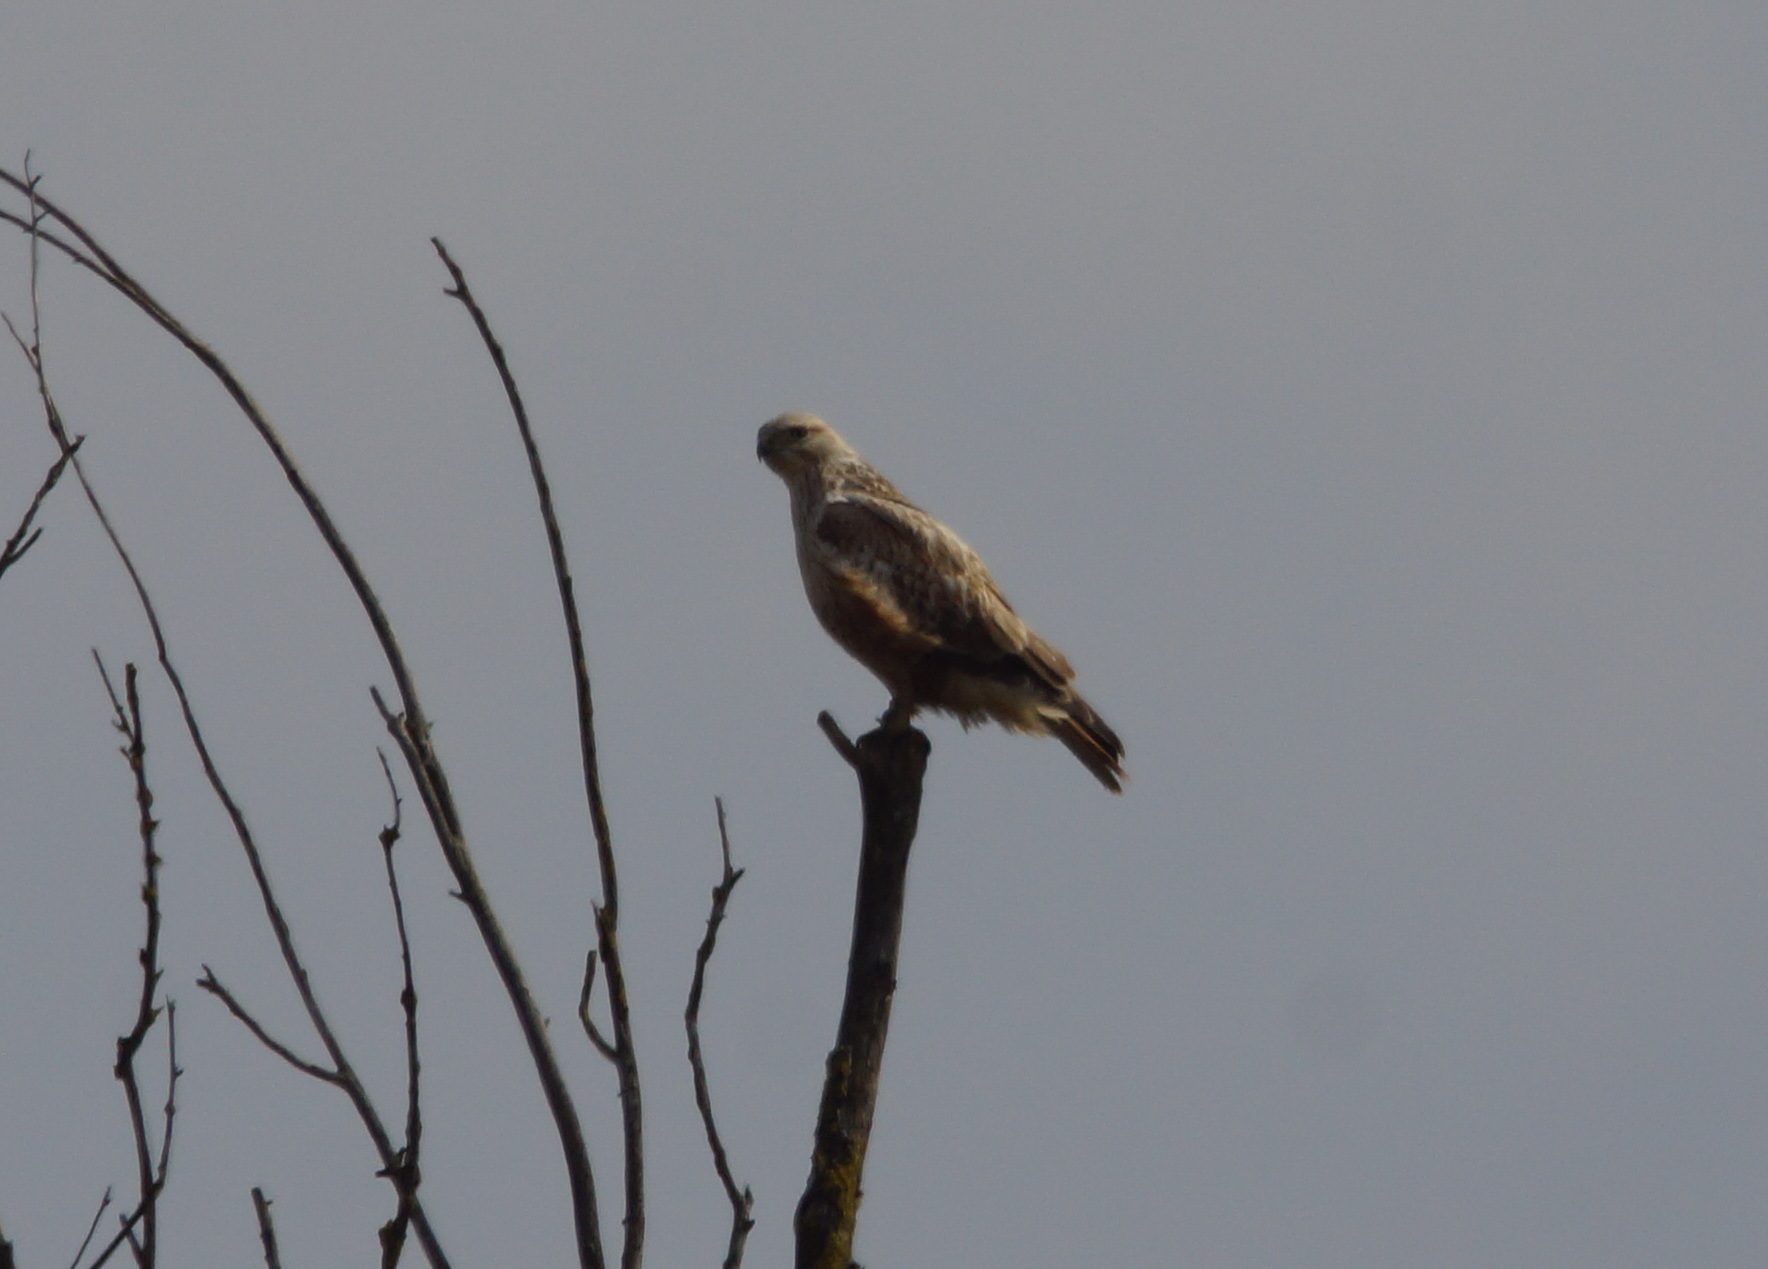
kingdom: Animalia
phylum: Chordata
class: Aves
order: Accipitriformes
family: Accipitridae
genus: Buteo
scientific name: Buteo lagopus
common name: Rough-legged buzzard
